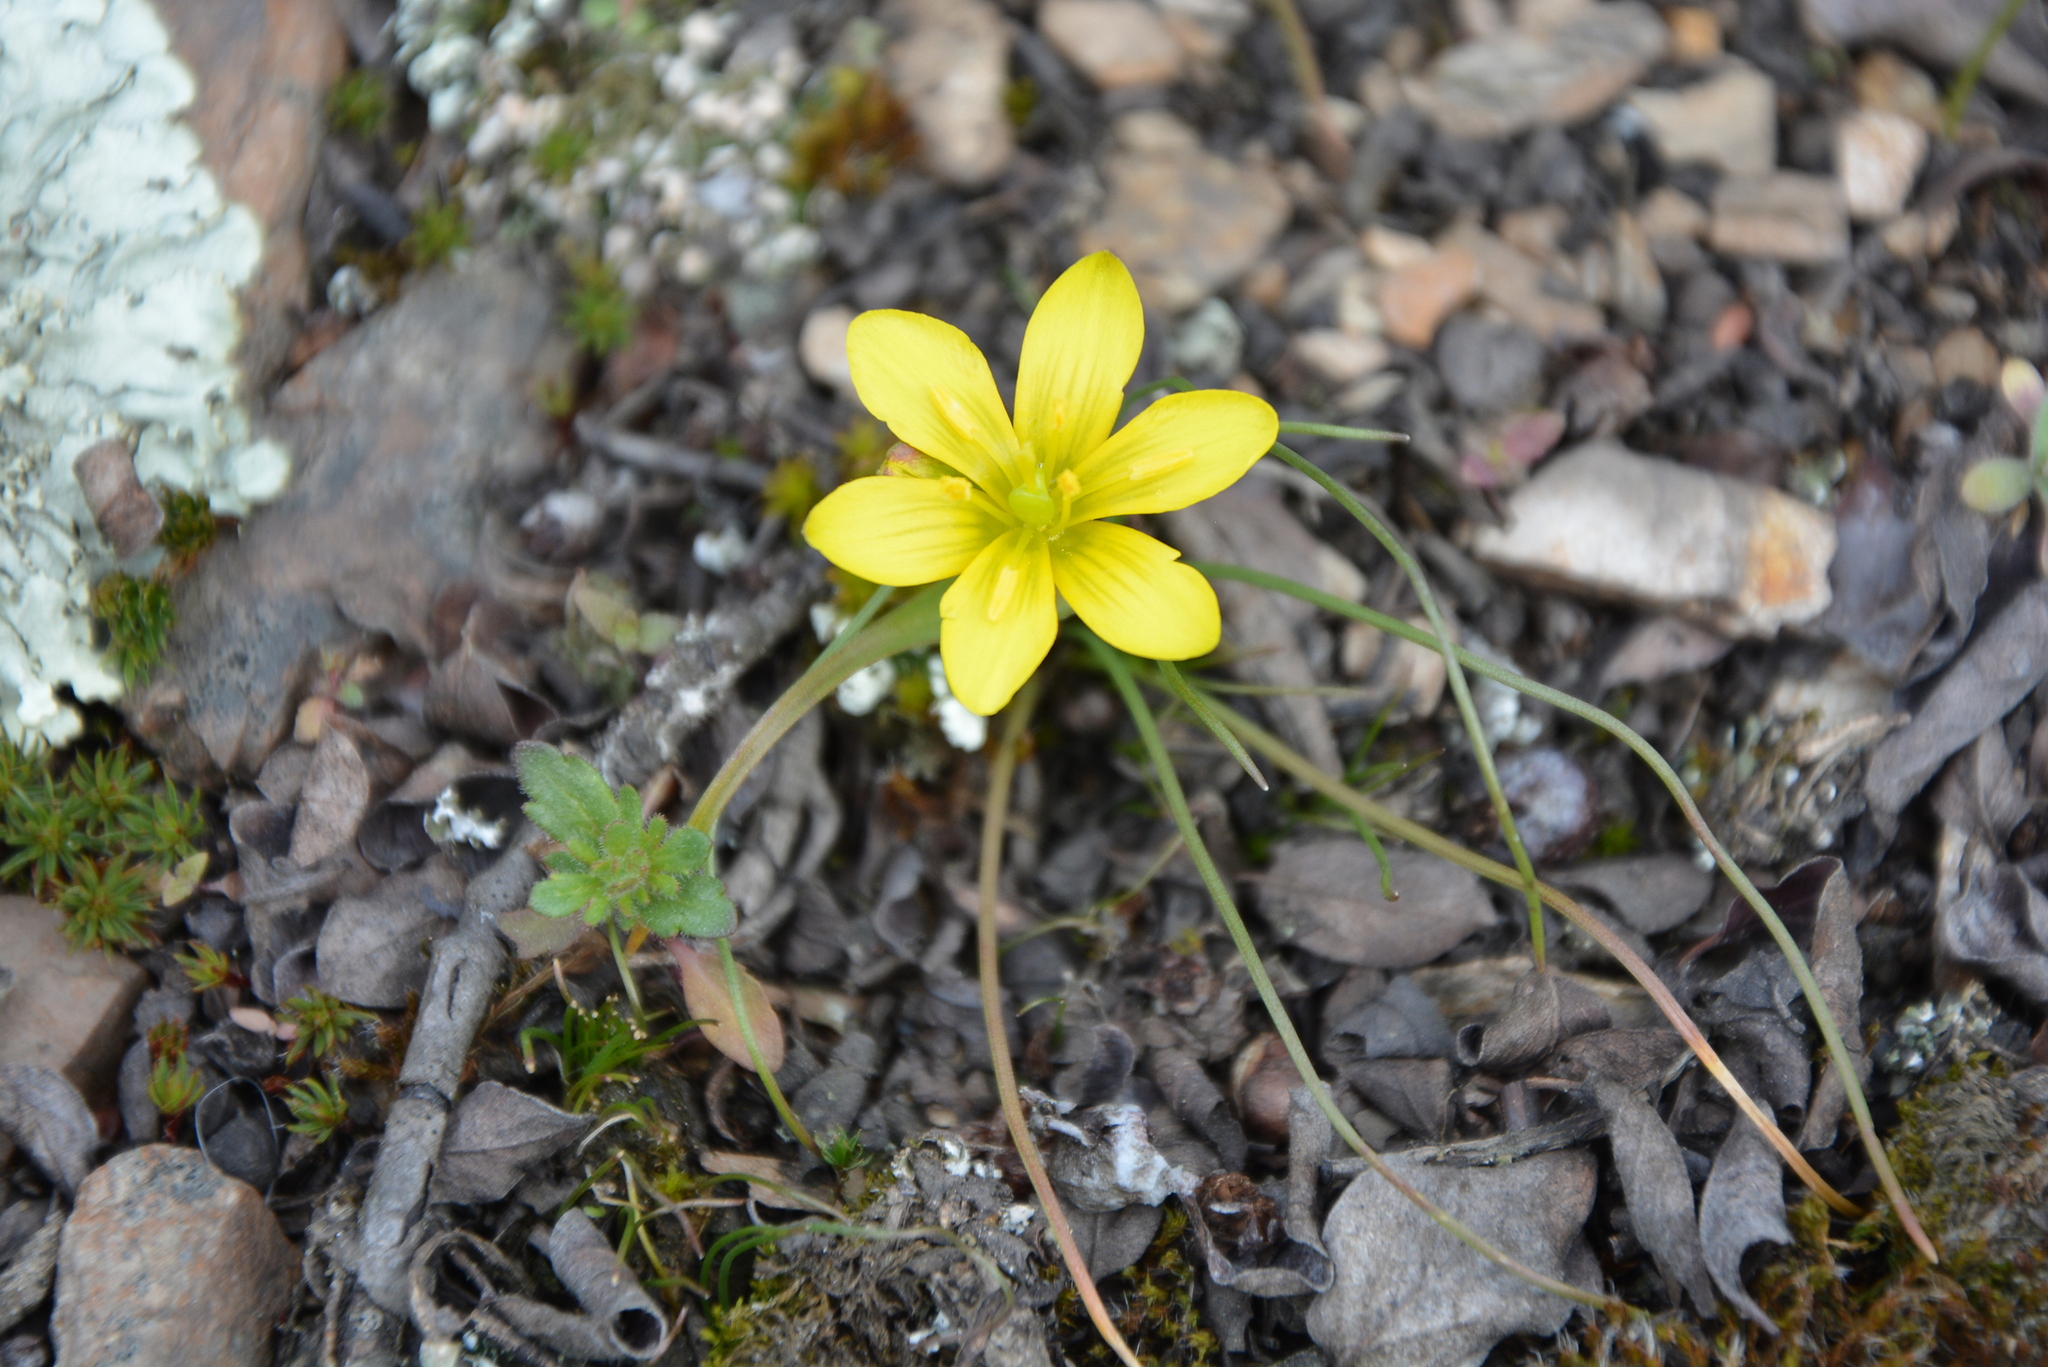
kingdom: Plantae
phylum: Tracheophyta
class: Liliopsida
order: Liliales
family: Liliaceae
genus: Gagea
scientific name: Gagea bohemica
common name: Early star-of-bethlehem
